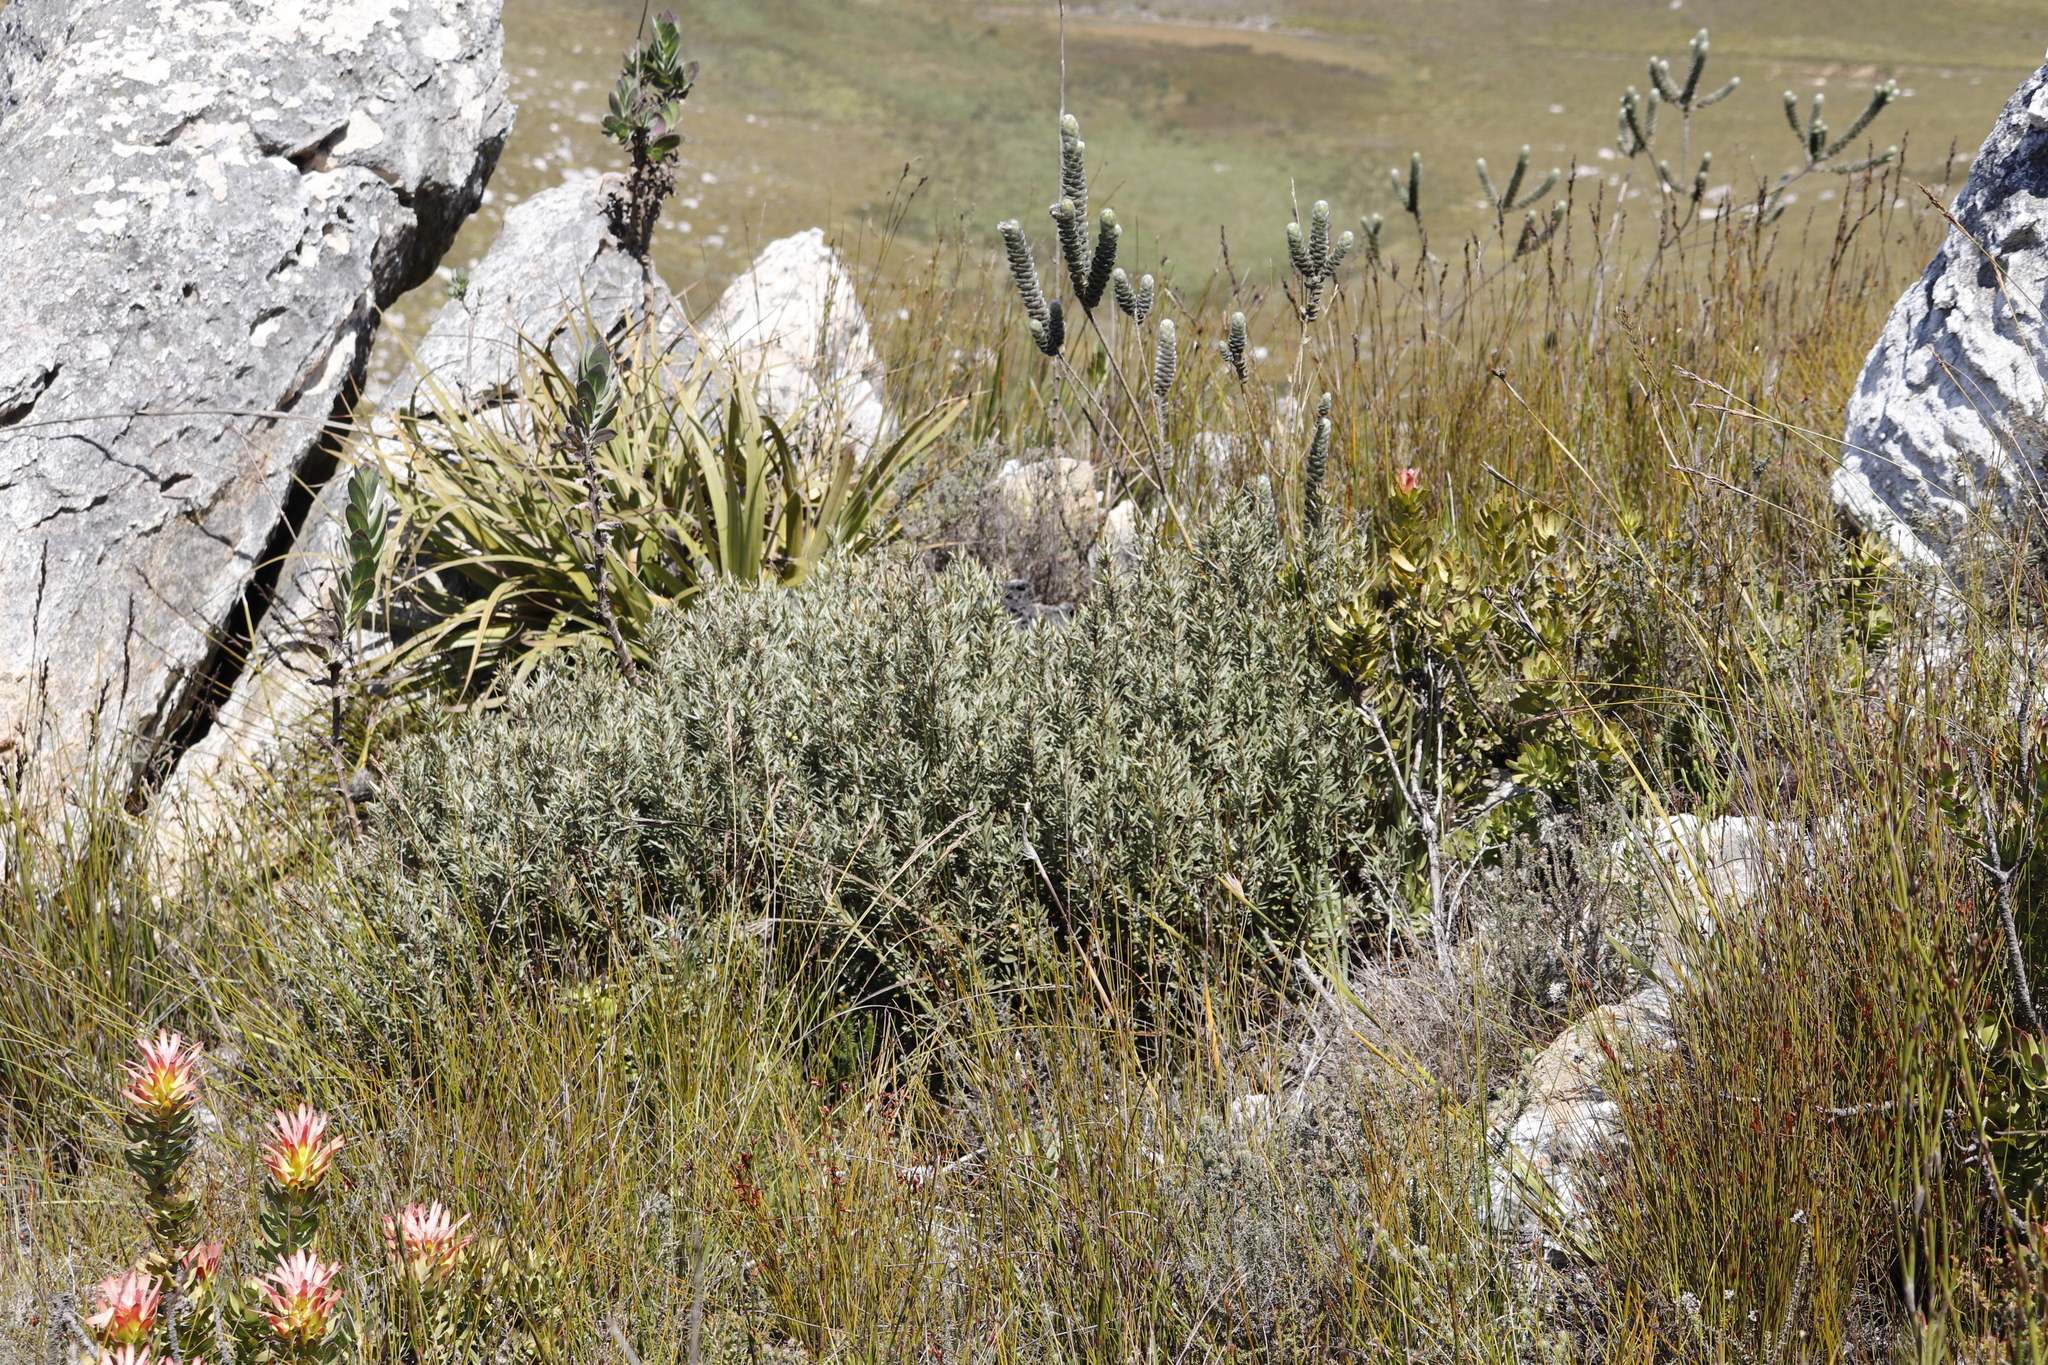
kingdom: Plantae
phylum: Tracheophyta
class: Magnoliopsida
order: Cornales
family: Grubbiaceae
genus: Grubbia
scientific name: Grubbia tomentosa
